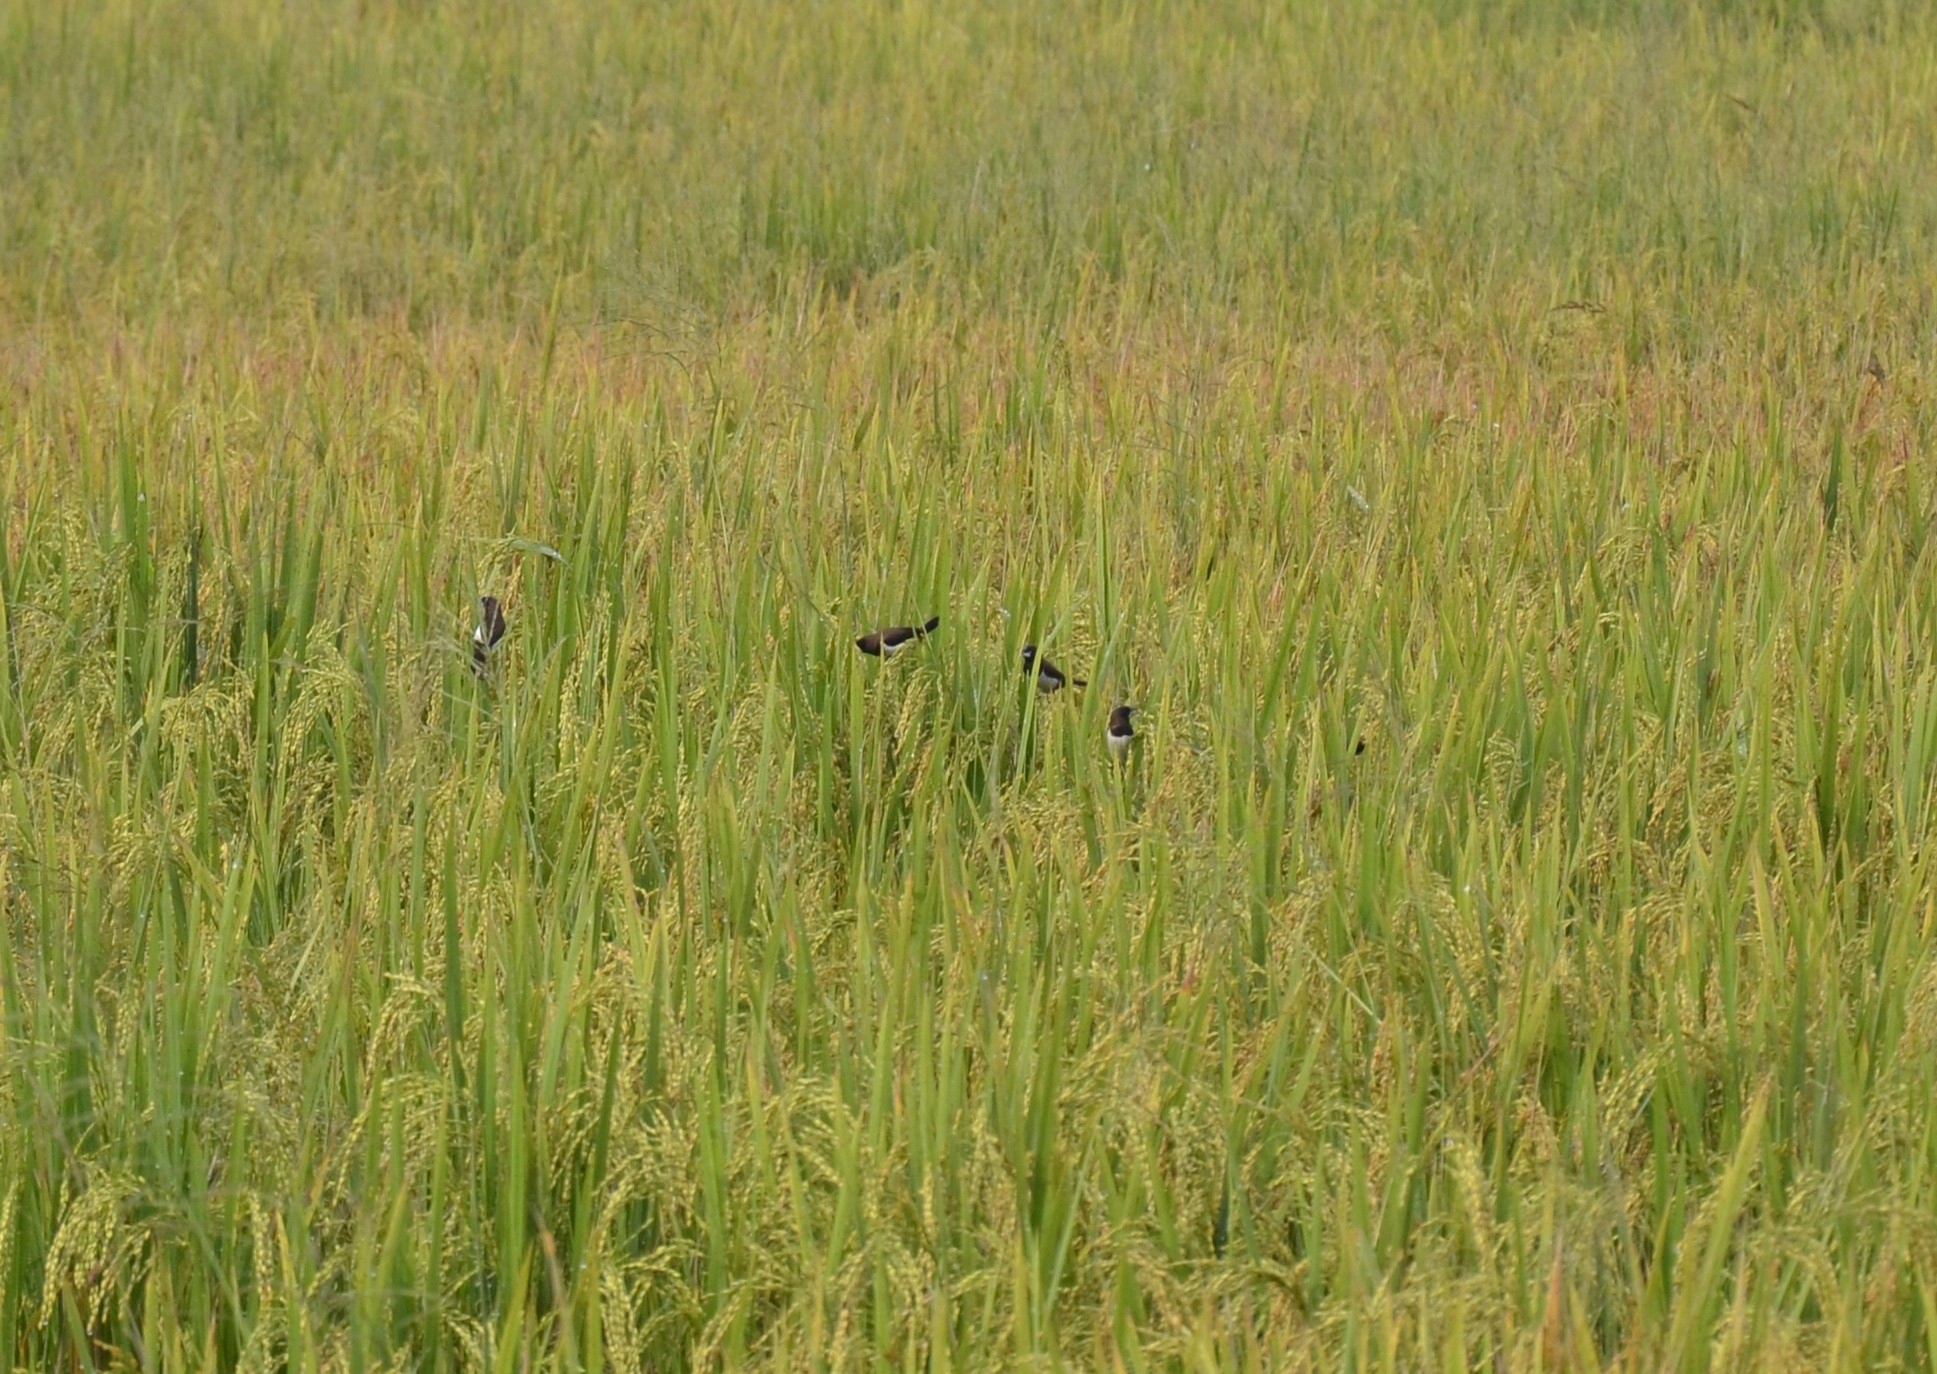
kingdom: Animalia
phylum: Chordata
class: Aves
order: Passeriformes
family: Estrildidae
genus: Lonchura
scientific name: Lonchura striata
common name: White-rumped munia
